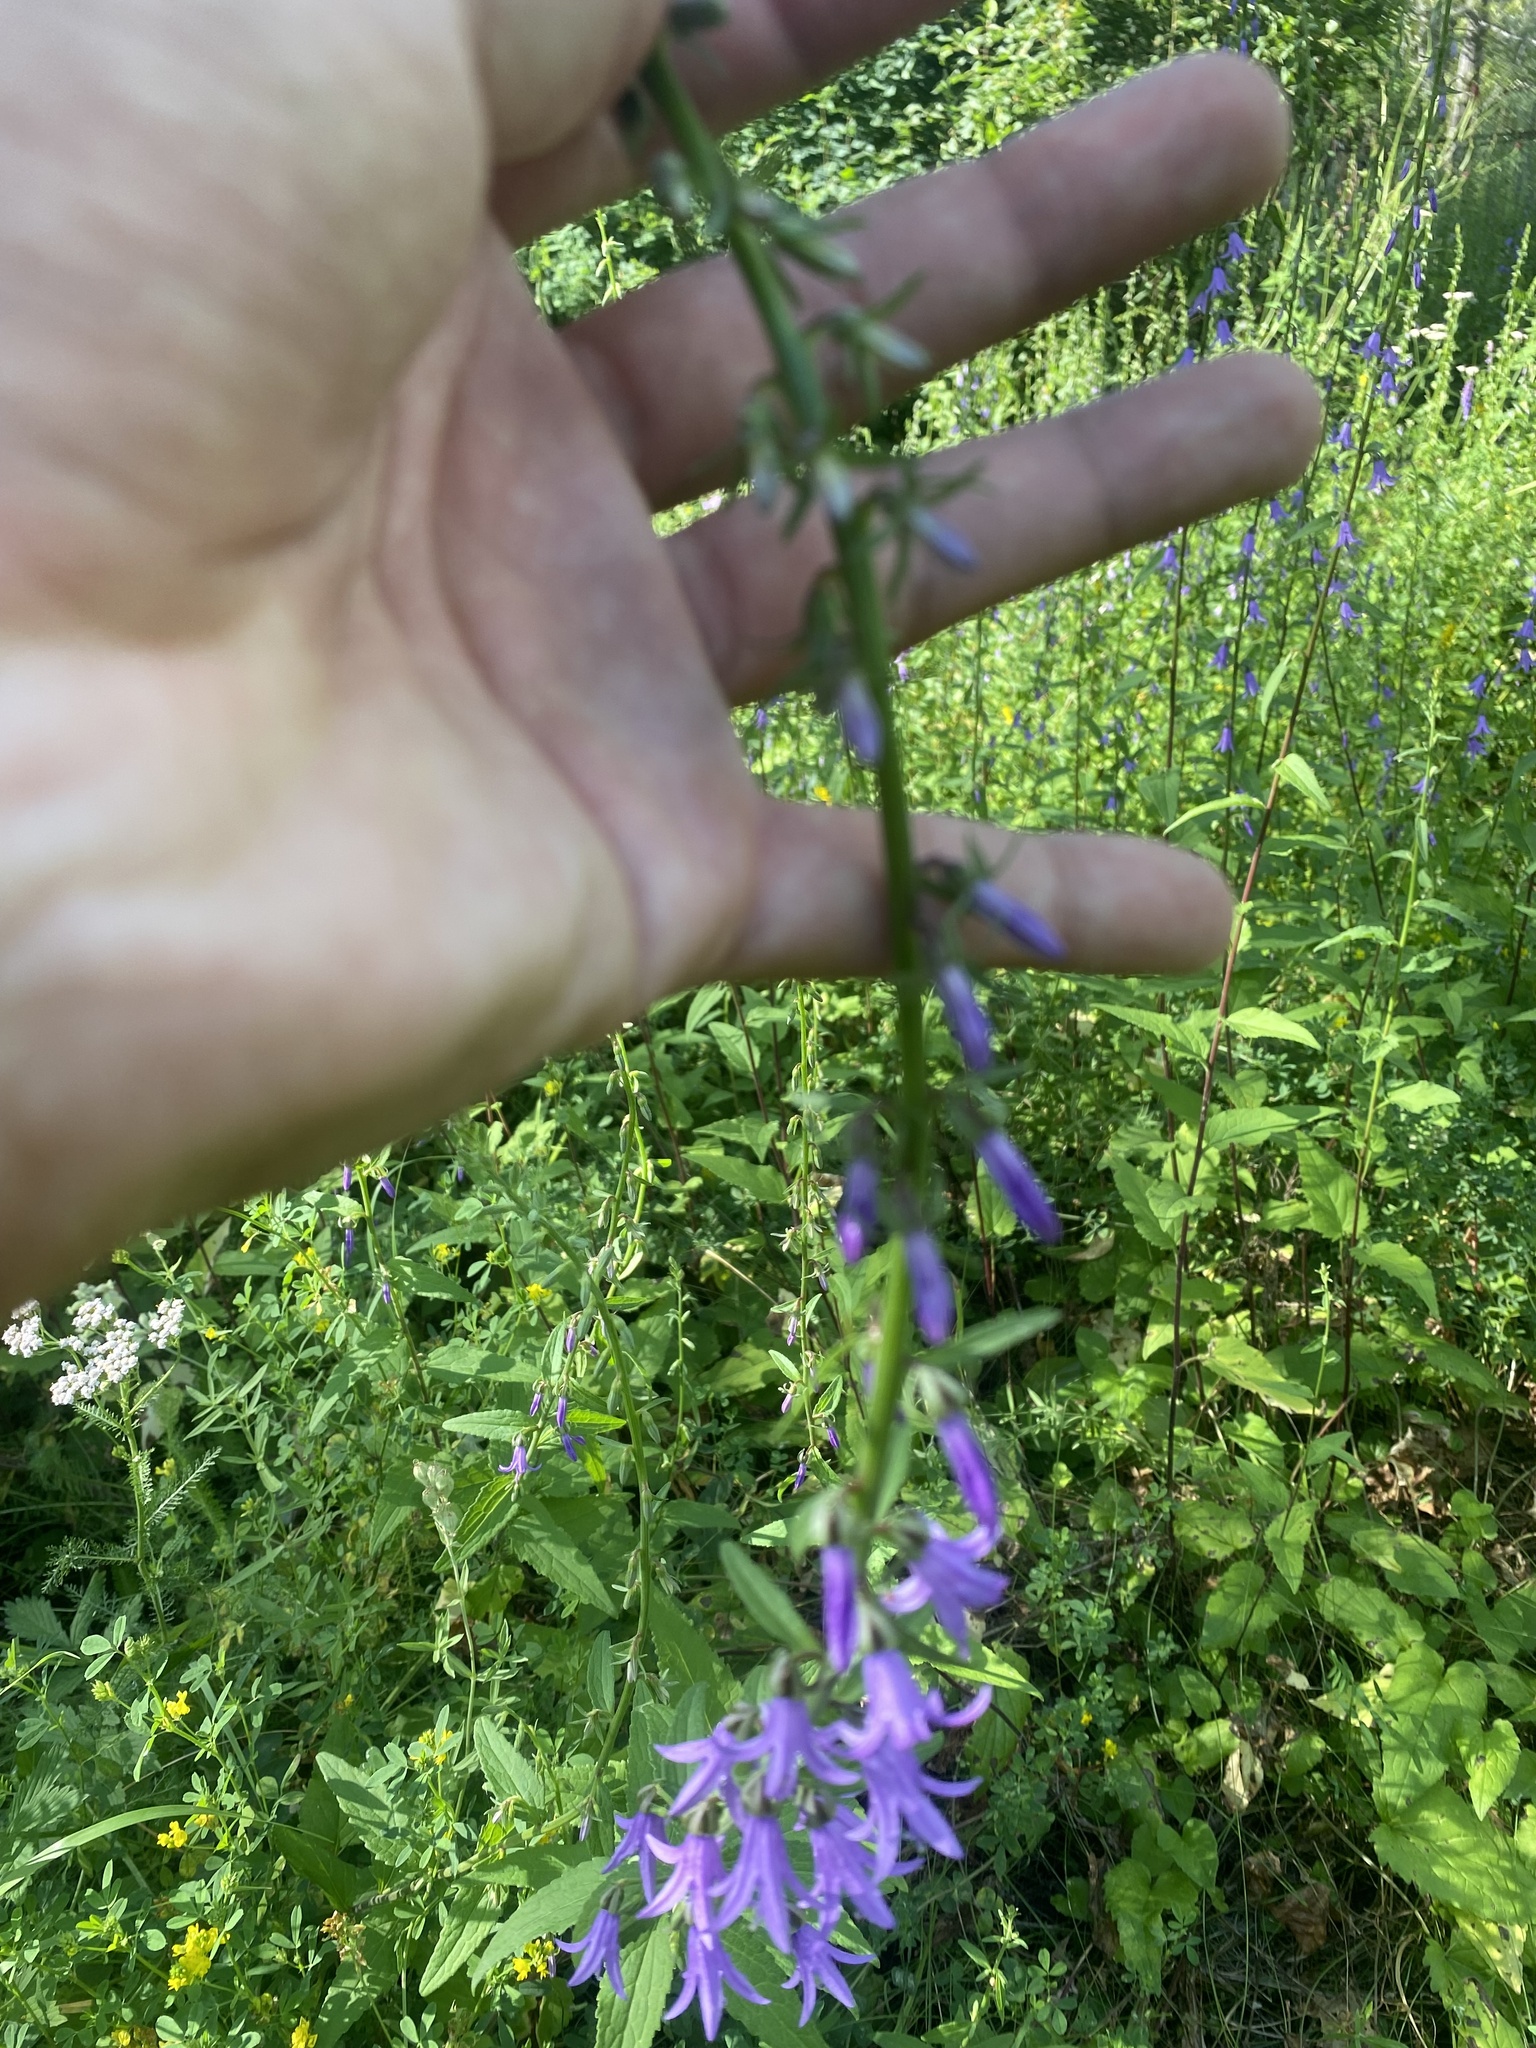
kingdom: Plantae
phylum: Tracheophyta
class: Magnoliopsida
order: Asterales
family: Campanulaceae
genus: Campanula
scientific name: Campanula rapunculoides
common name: Creeping bellflower
